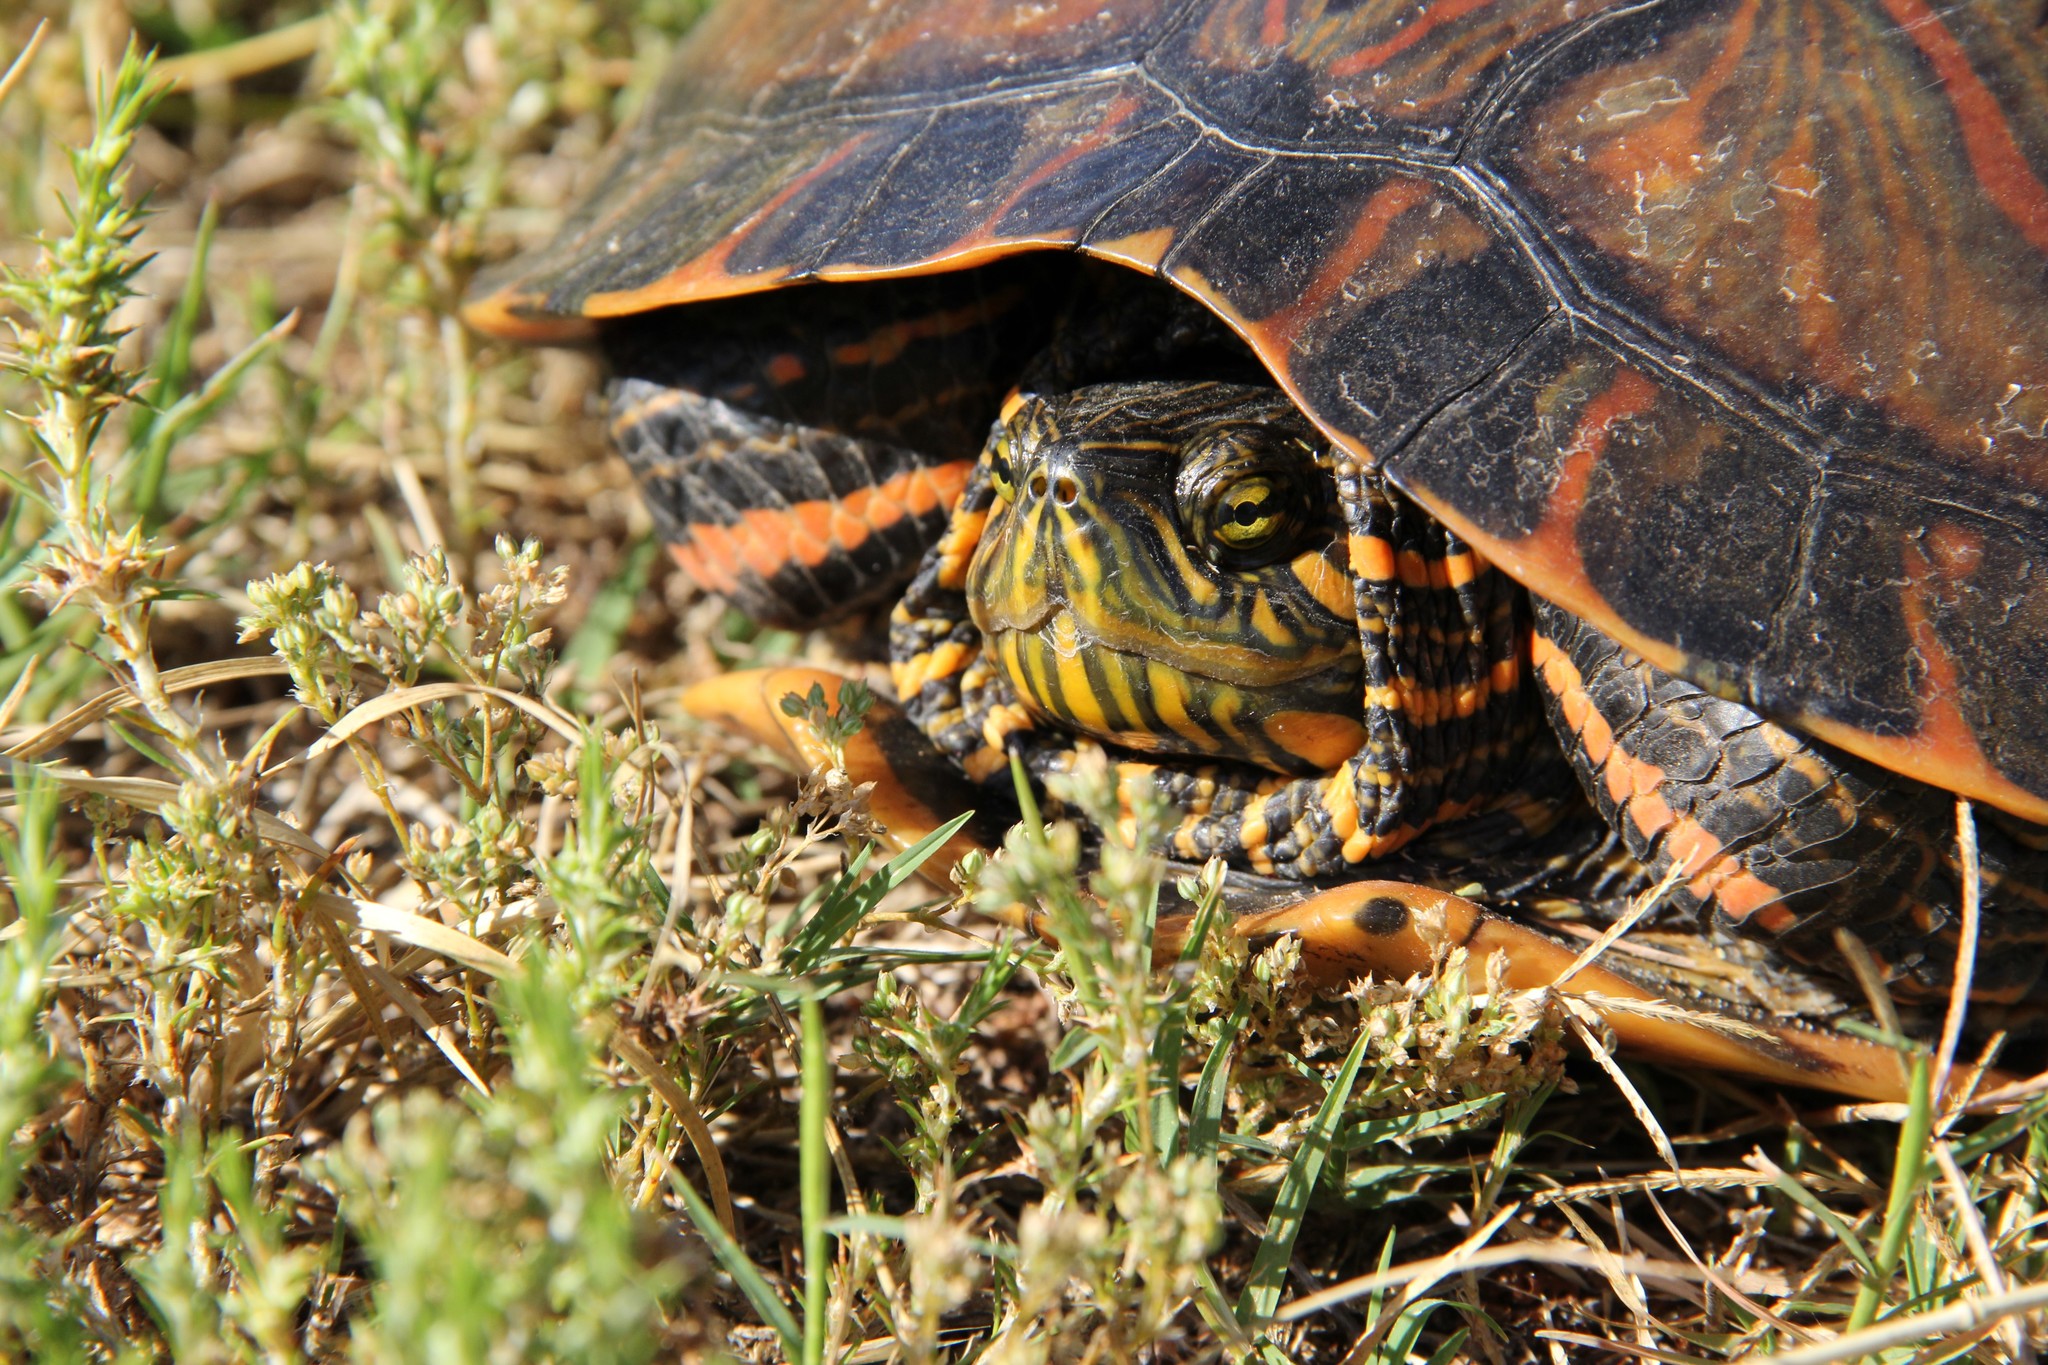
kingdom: Animalia
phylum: Chordata
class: Testudines
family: Emydidae
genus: Trachemys
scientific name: Trachemys dorbigni
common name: Black-bellied slider
